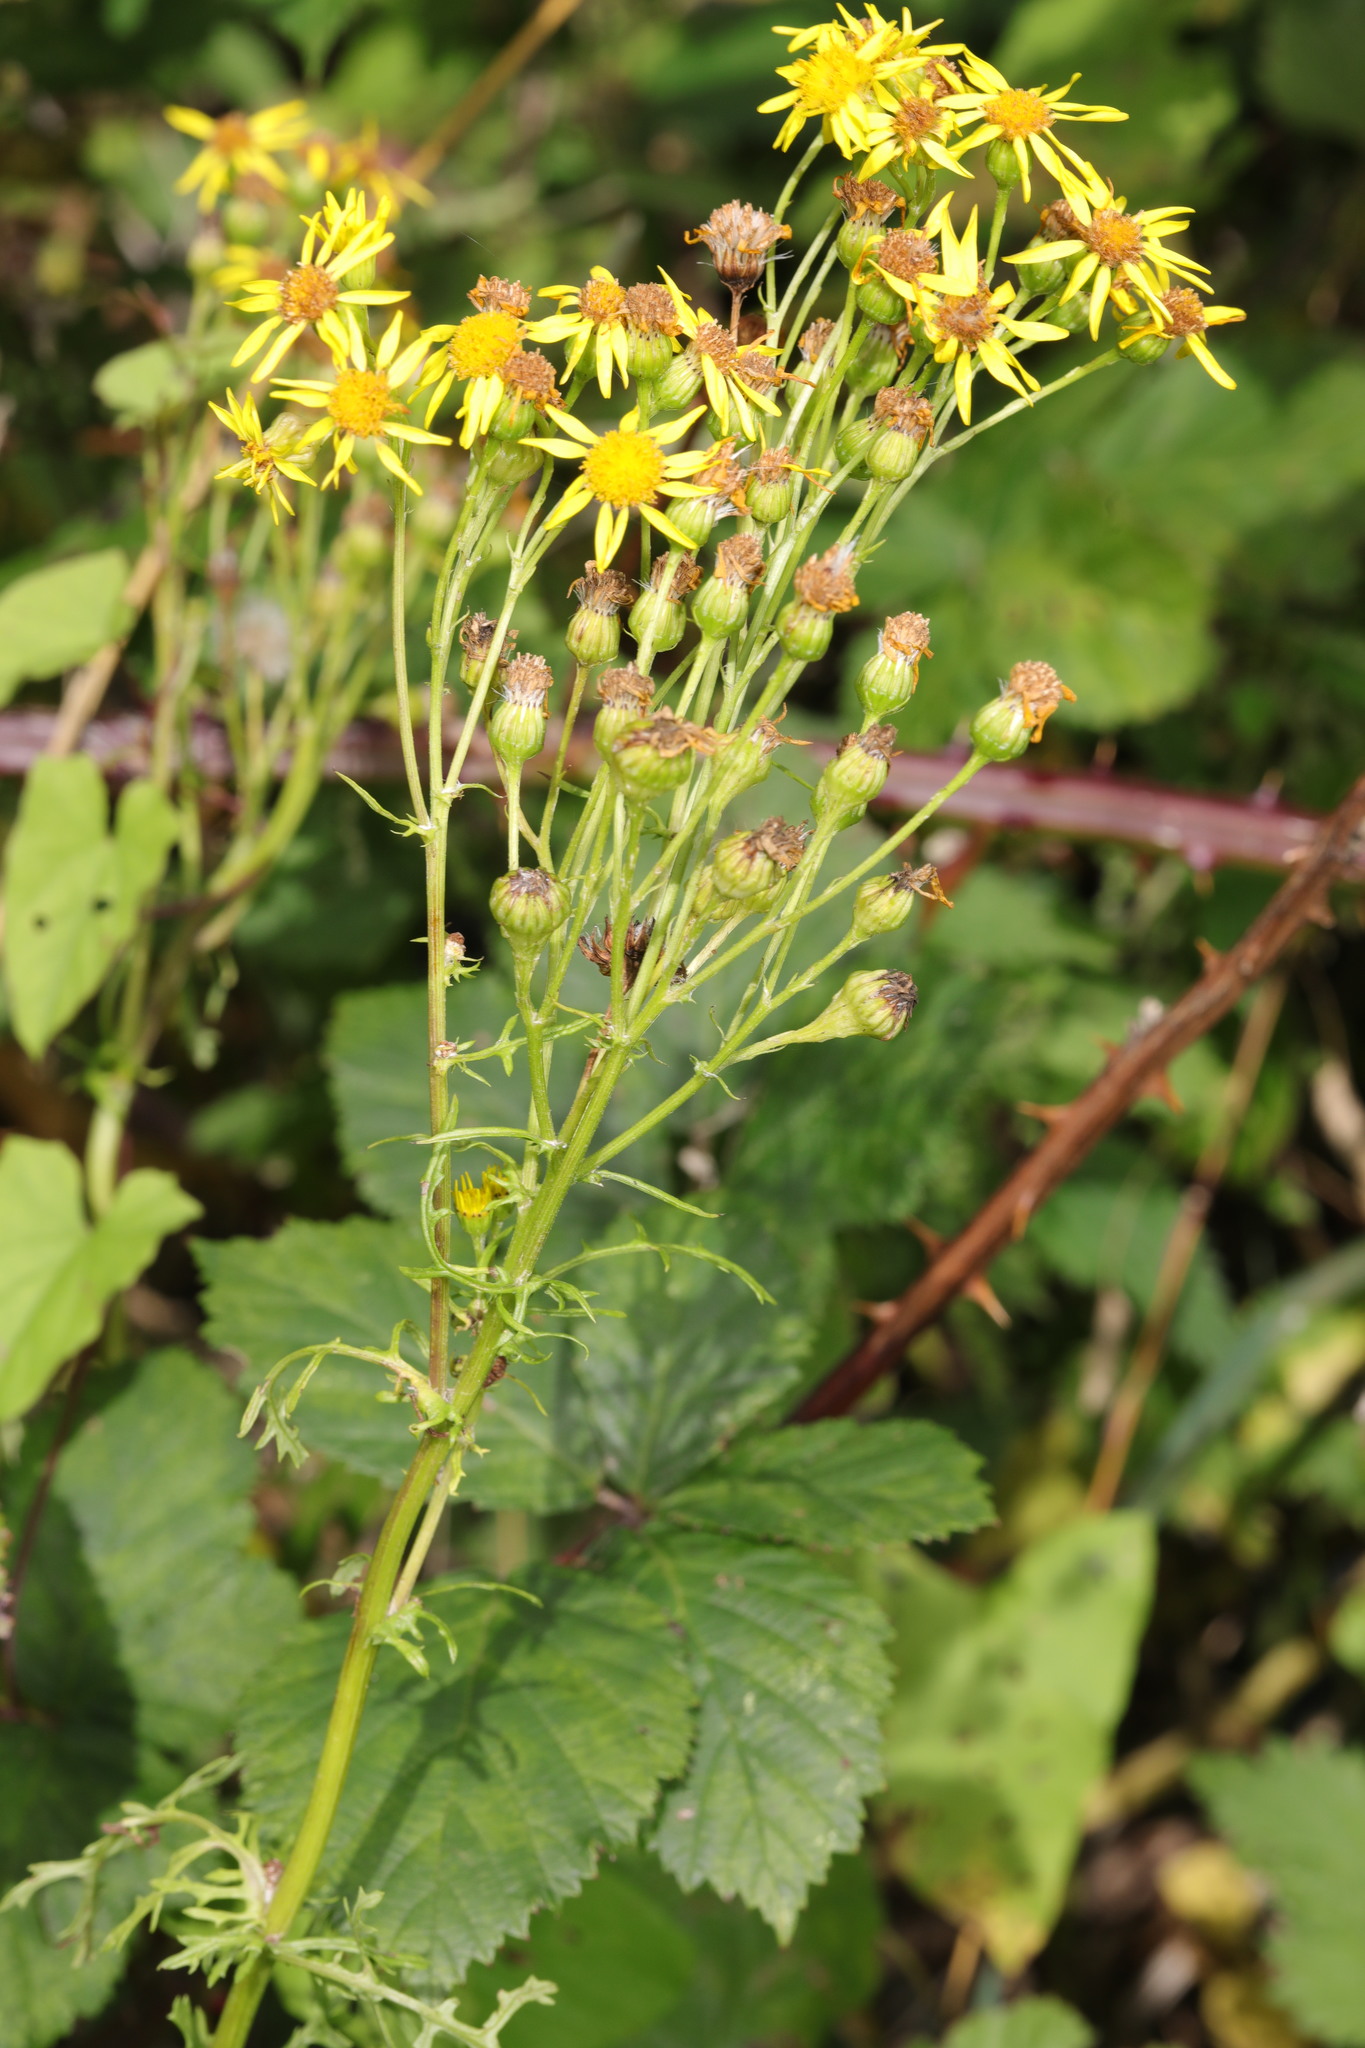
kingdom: Plantae
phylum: Tracheophyta
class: Magnoliopsida
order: Asterales
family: Asteraceae
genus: Jacobaea
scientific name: Jacobaea vulgaris
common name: Stinking willie
